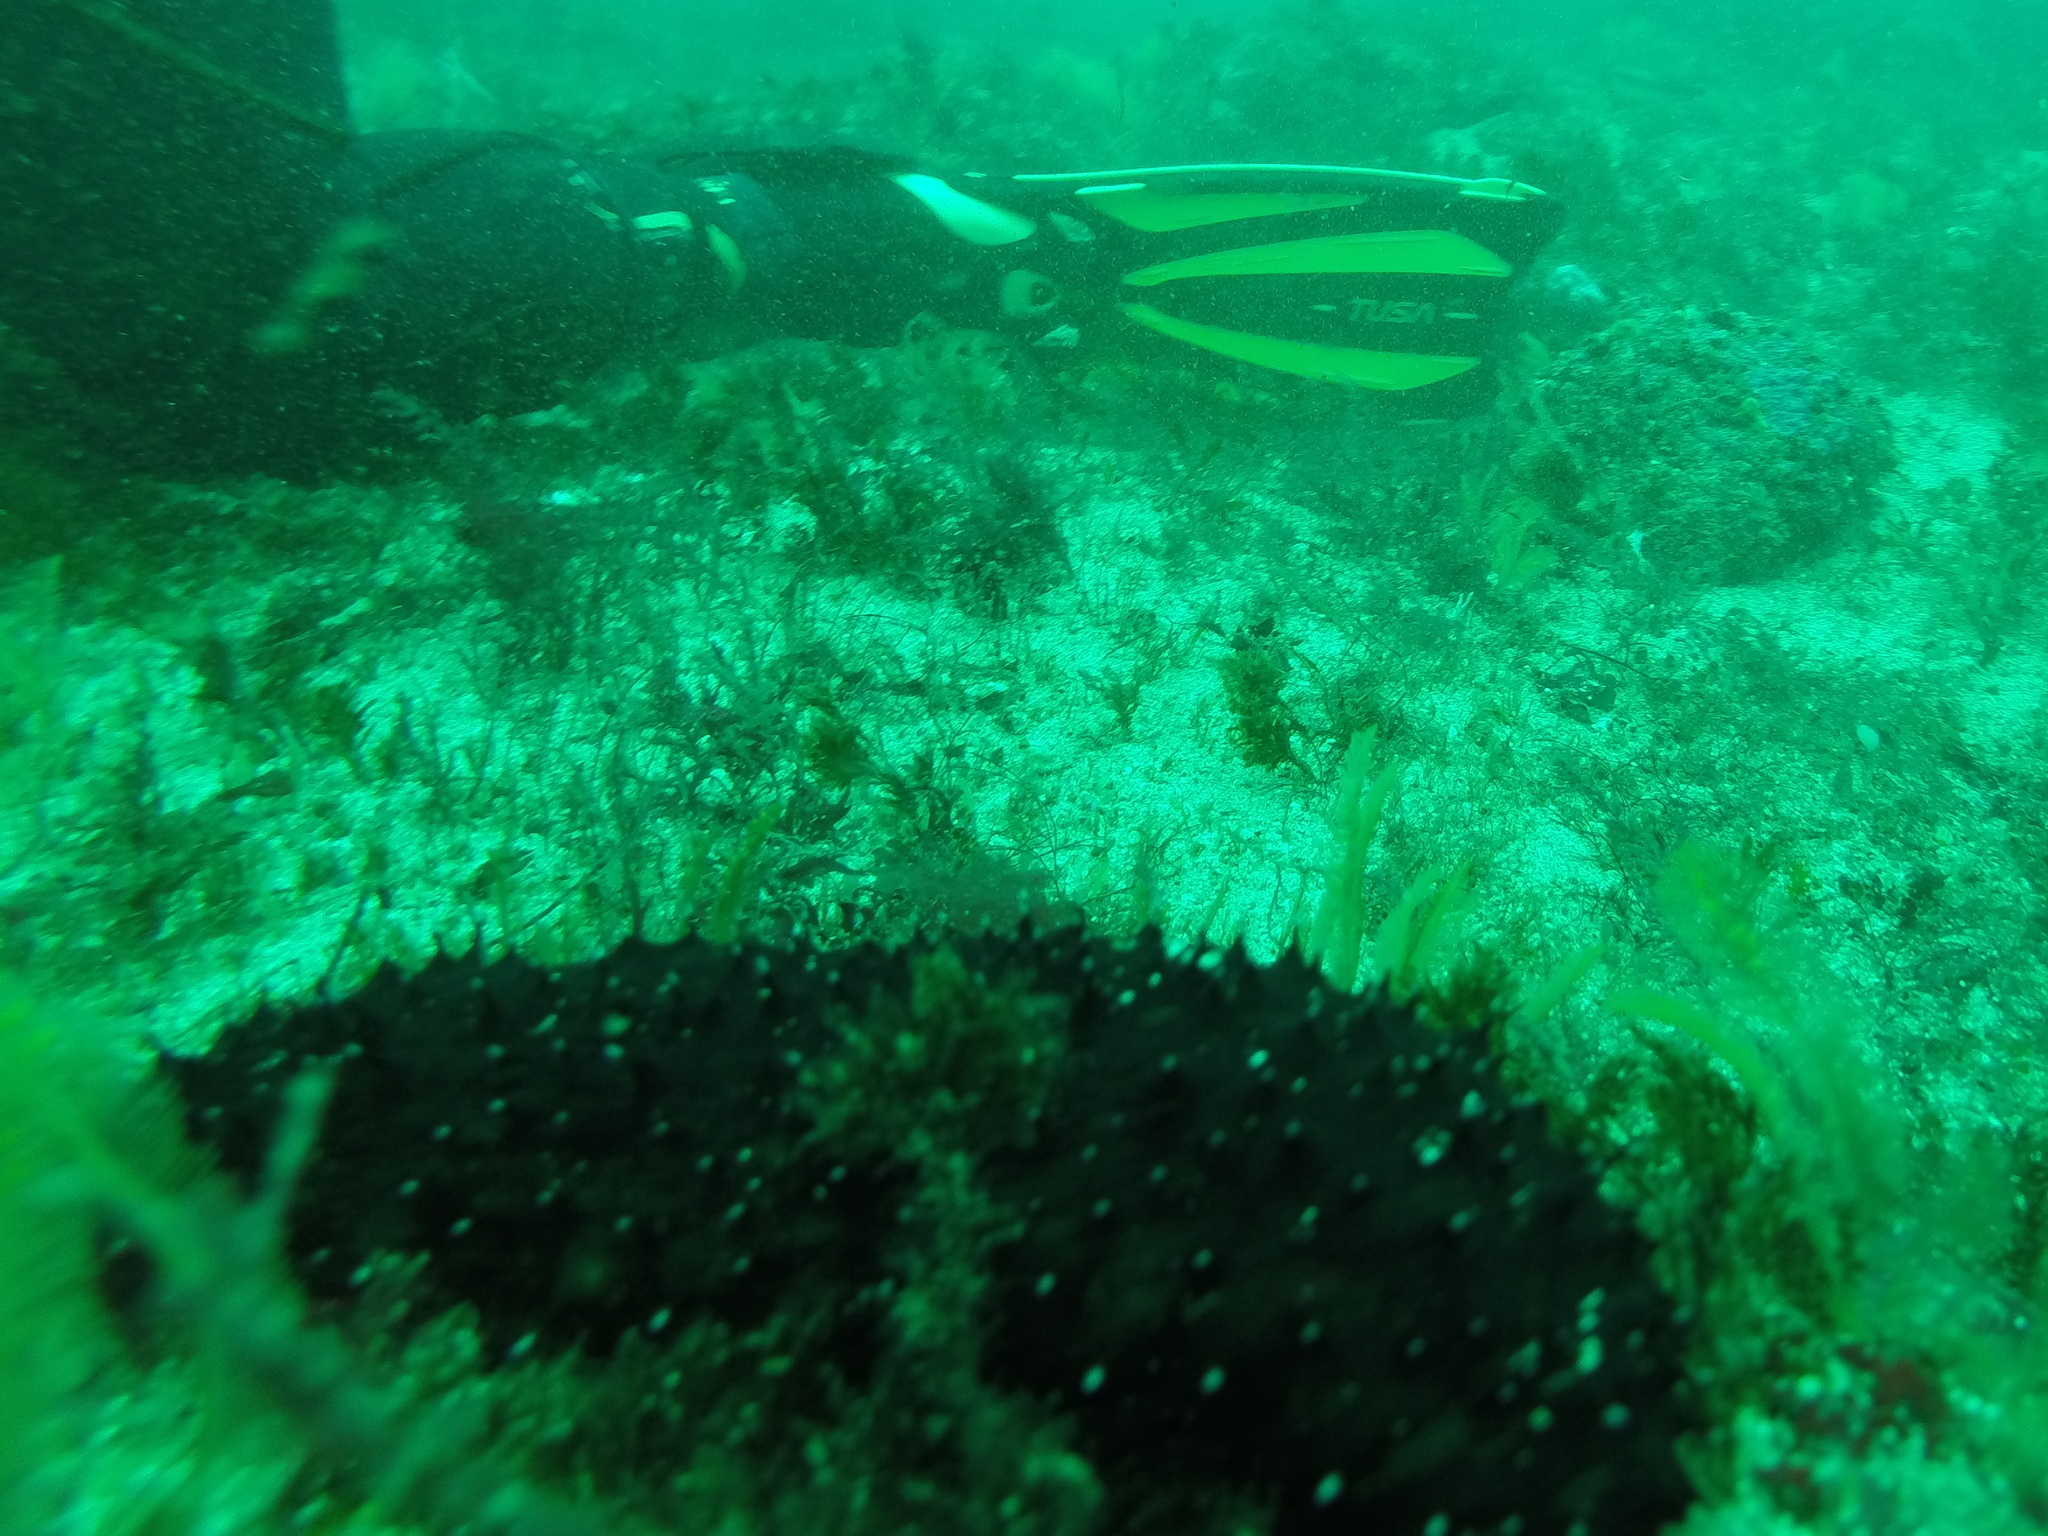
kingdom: Animalia
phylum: Echinodermata
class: Holothuroidea
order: Holothuriida
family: Holothuriidae
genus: Holothuria
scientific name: Holothuria forskali
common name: Black sea cucumber
